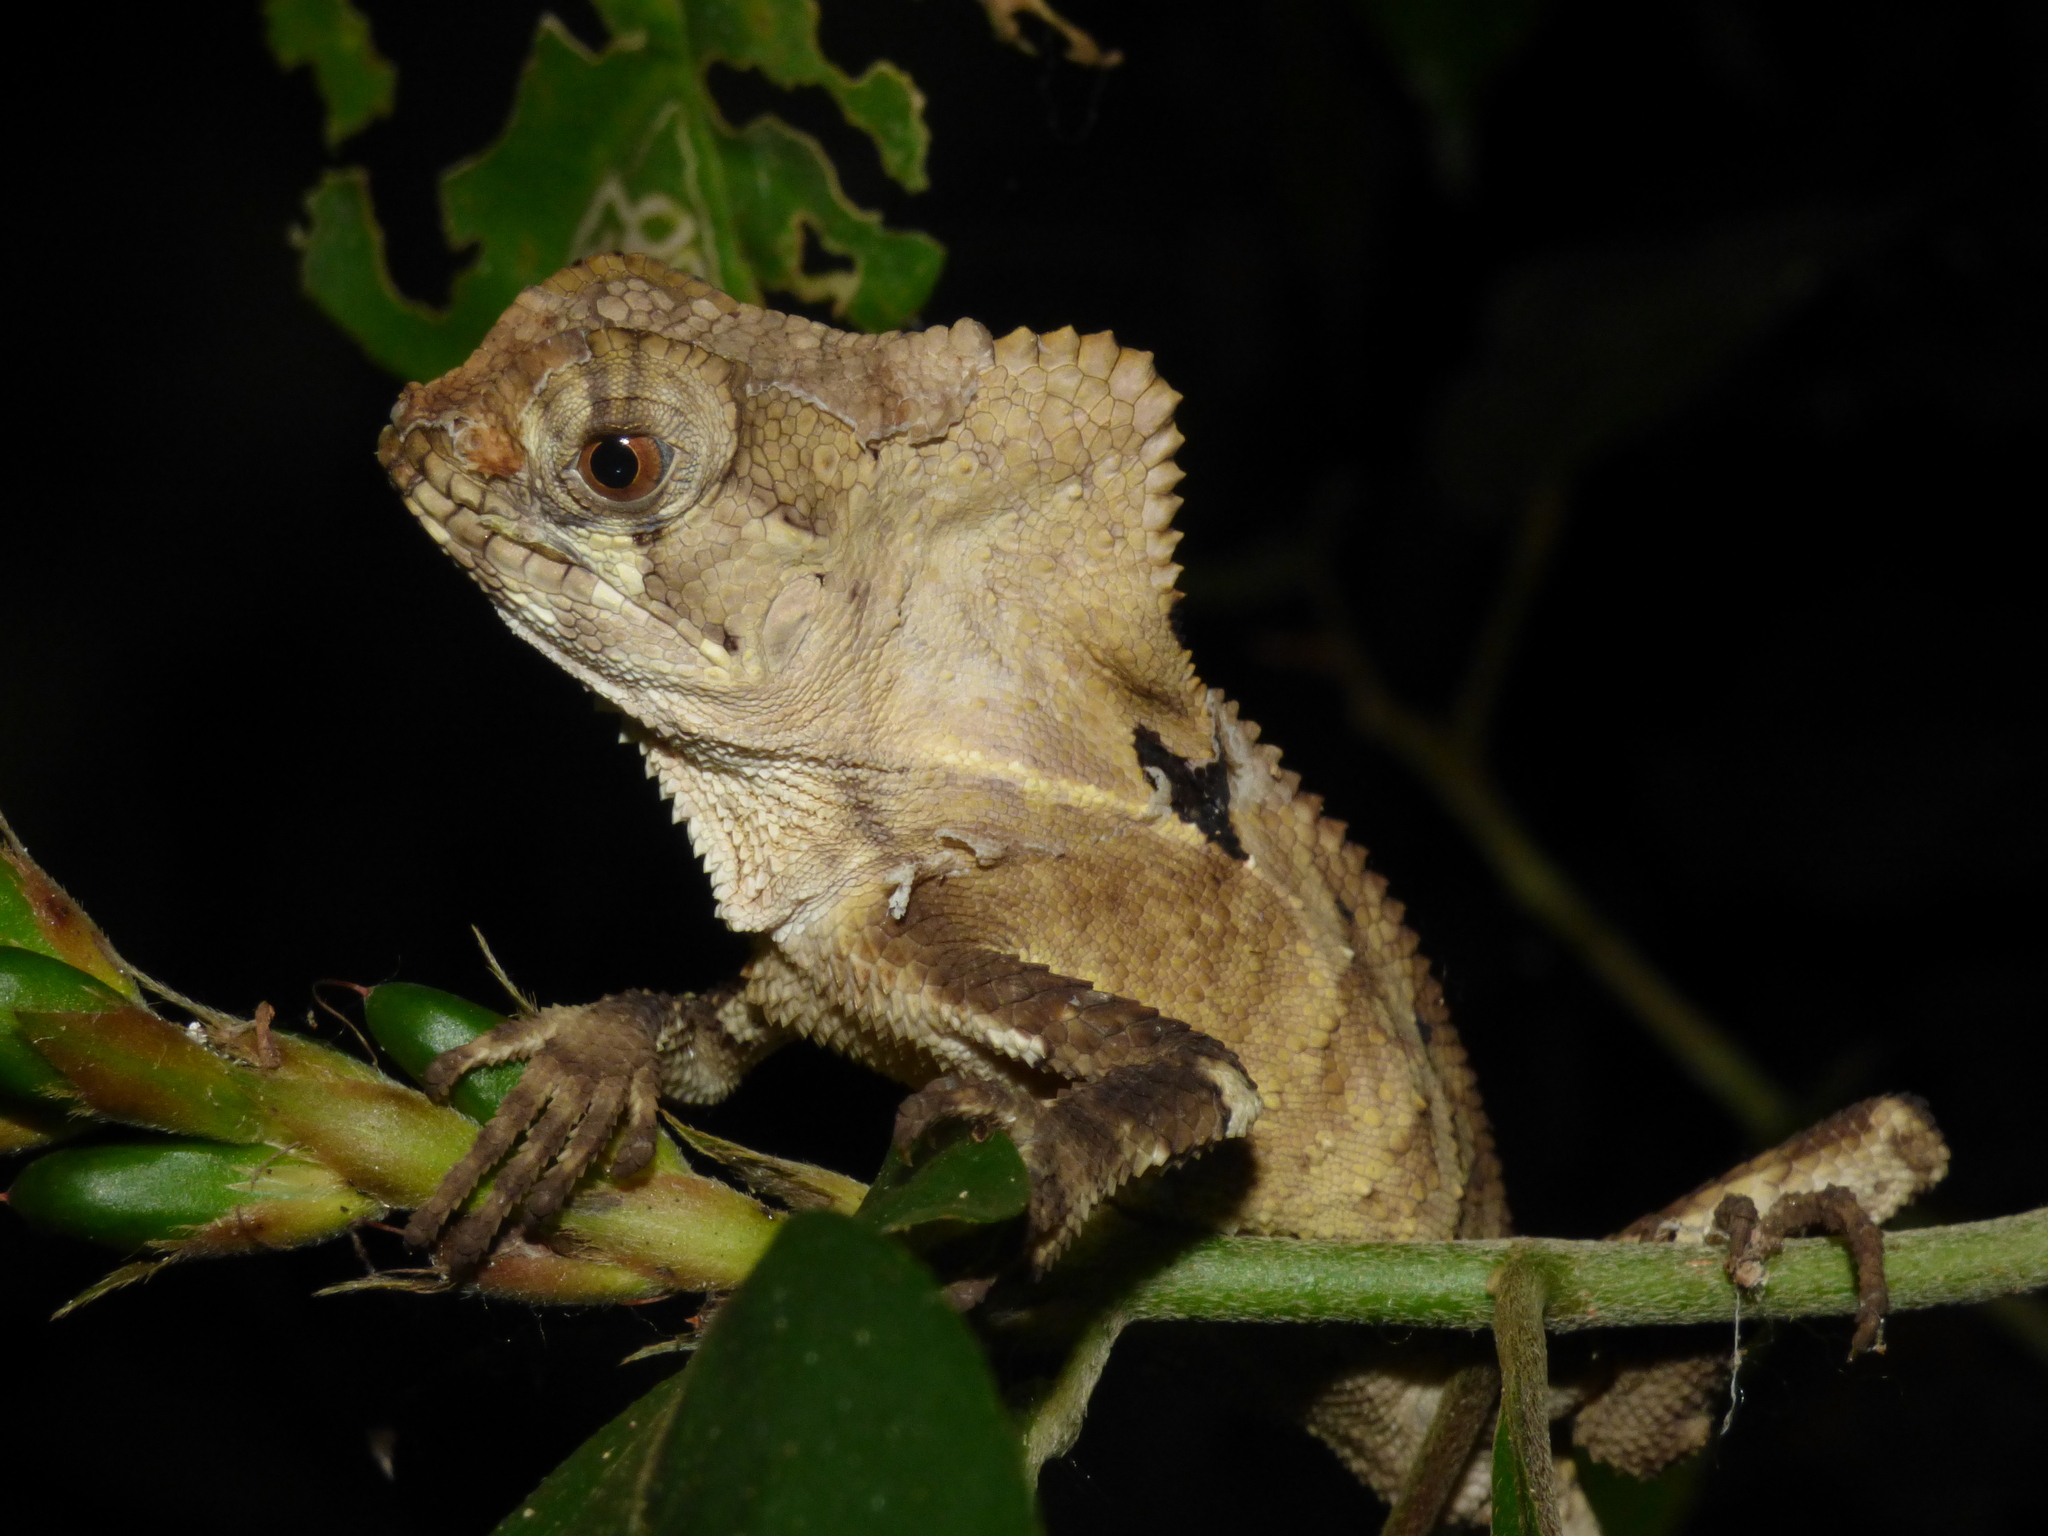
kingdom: Animalia
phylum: Chordata
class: Squamata
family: Corytophanidae
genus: Corytophanes
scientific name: Corytophanes cristatus
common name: Smooth helmeted iguana
